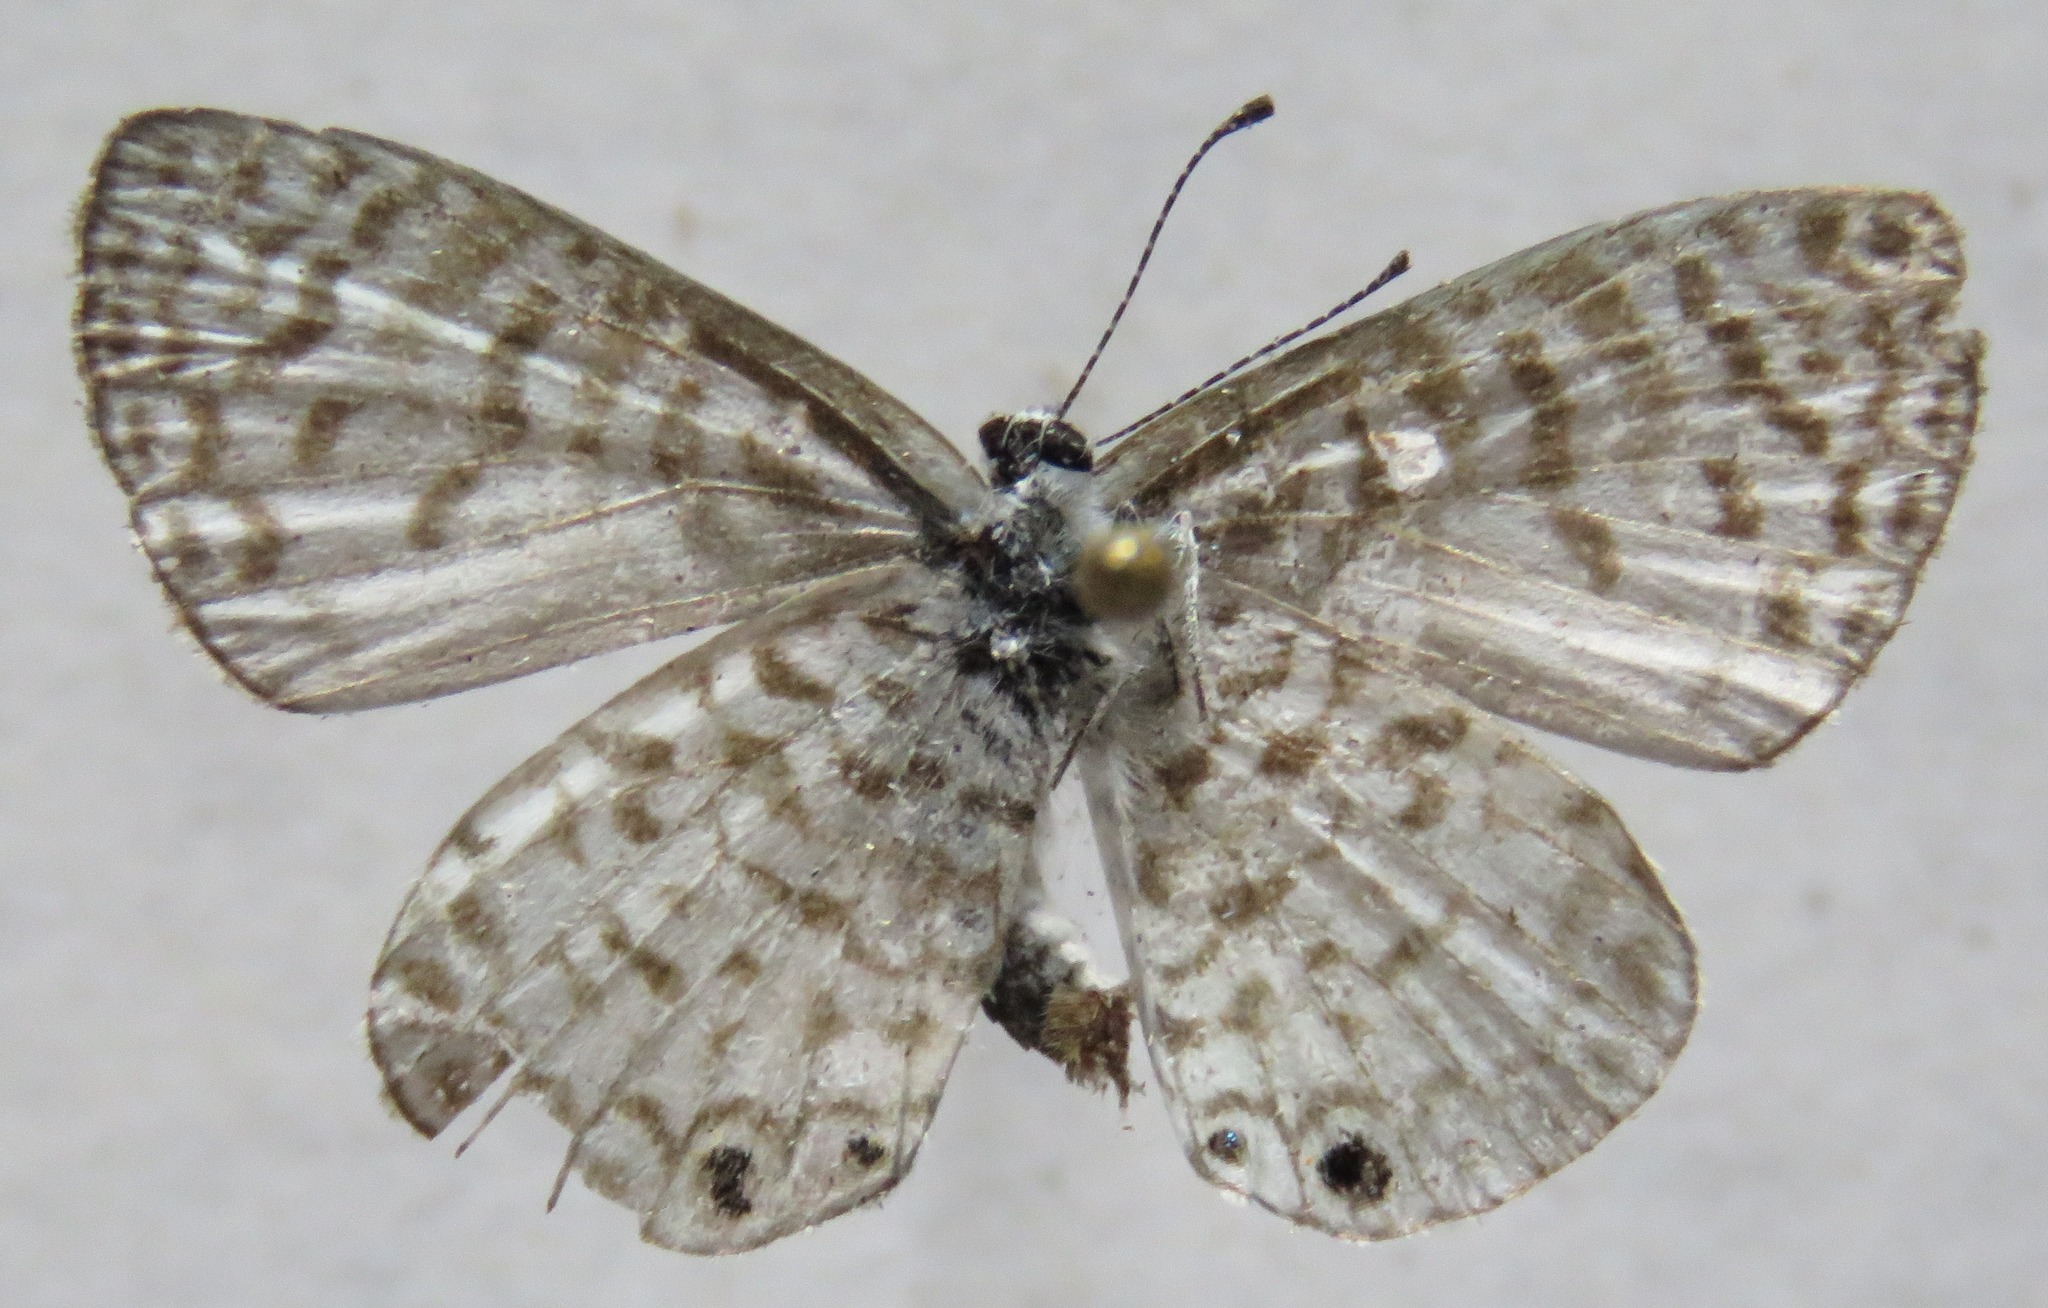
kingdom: Animalia
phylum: Arthropoda
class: Insecta
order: Lepidoptera
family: Lycaenidae
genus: Leptotes
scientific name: Leptotes theonus
